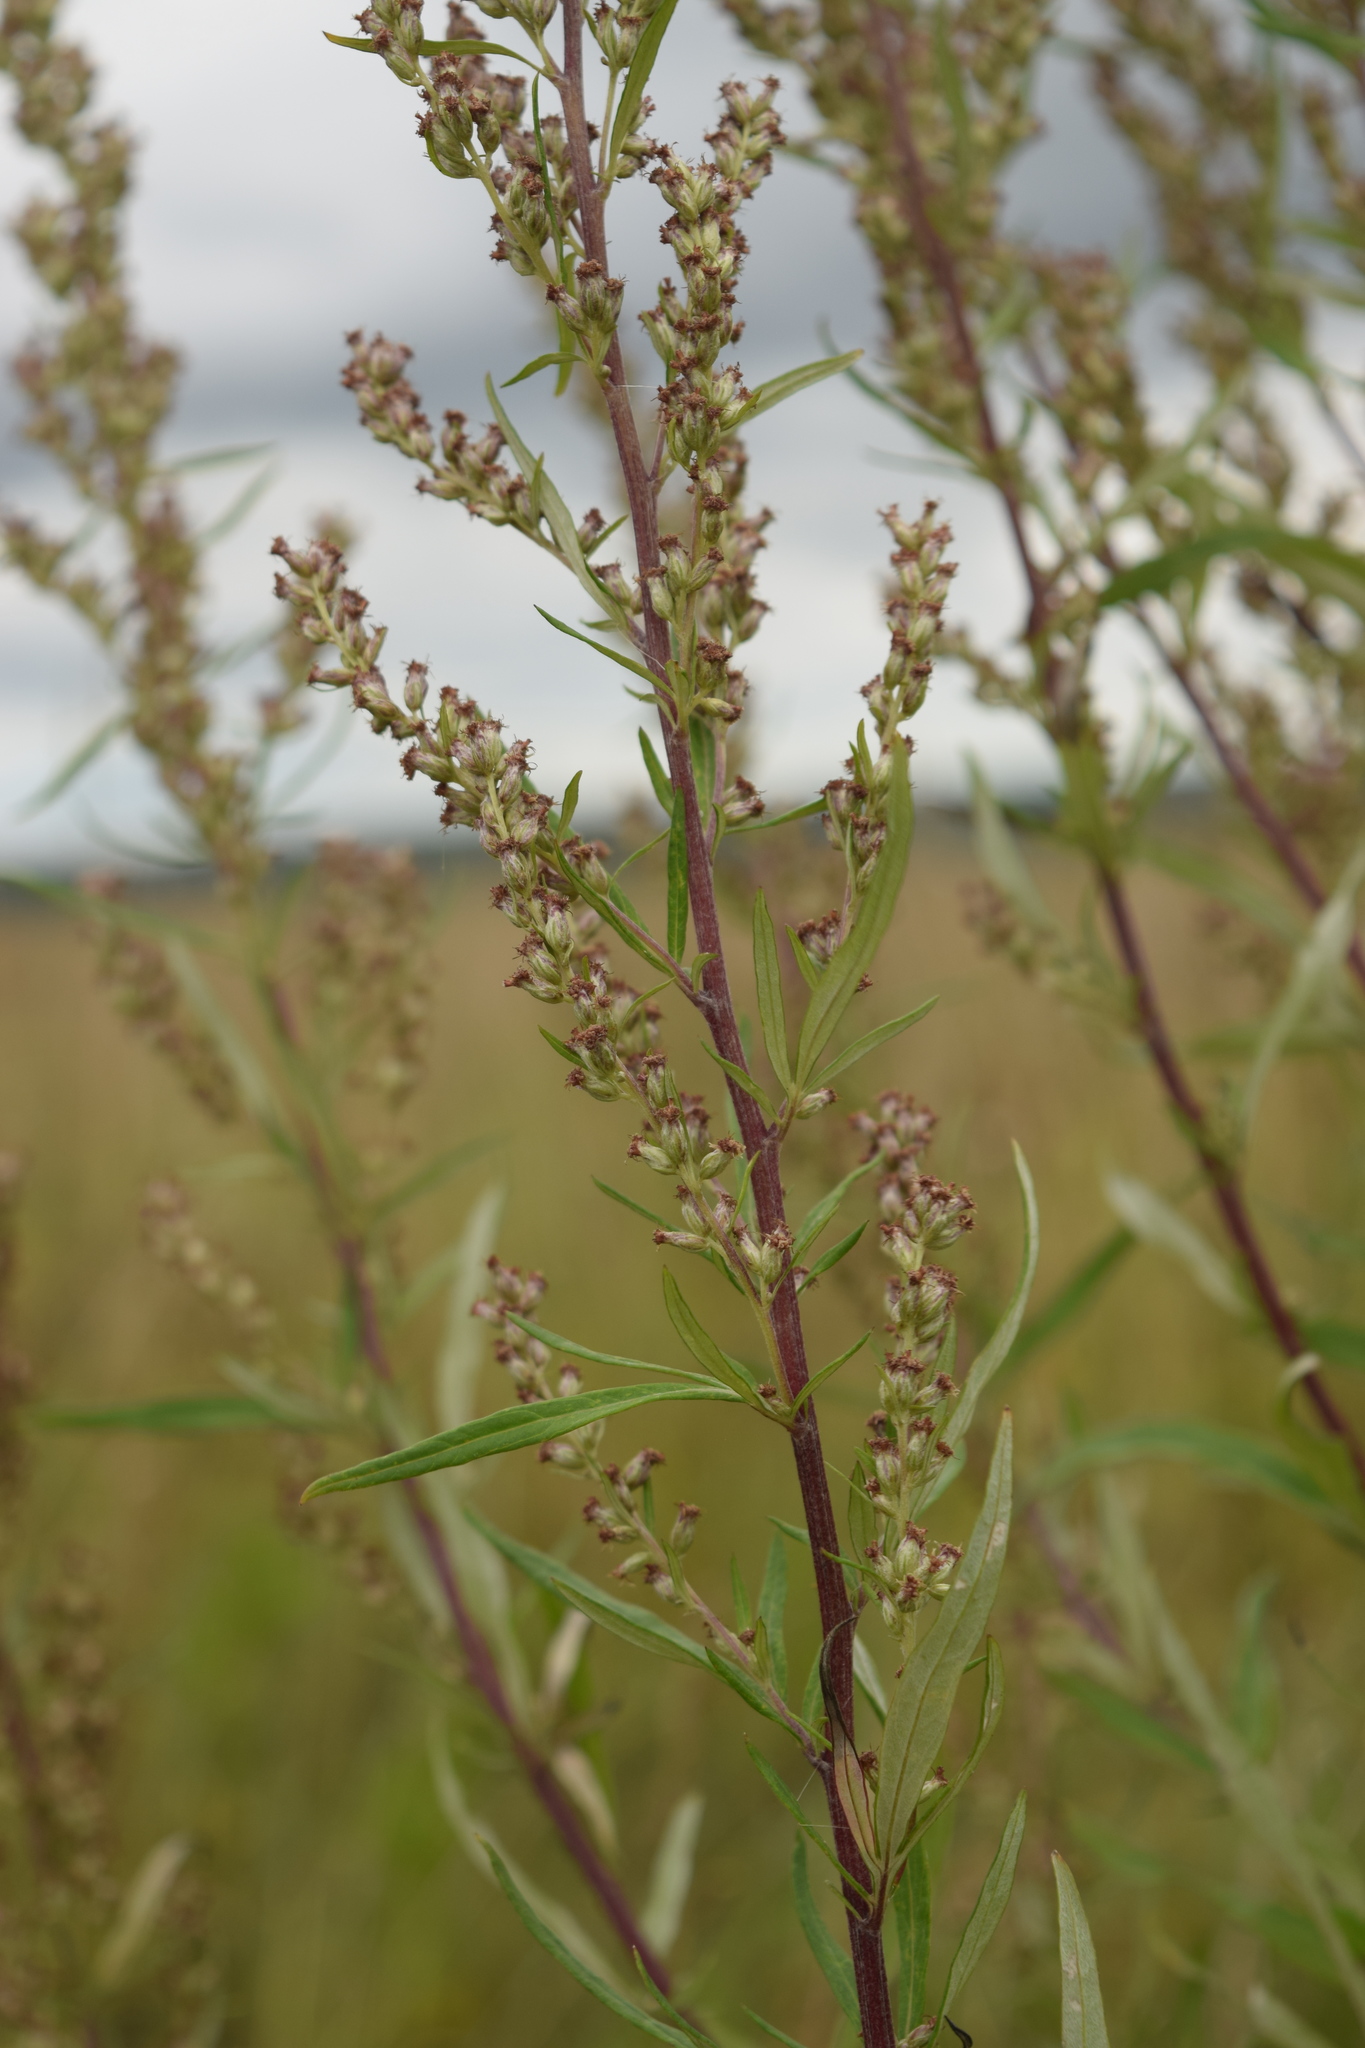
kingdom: Plantae
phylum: Tracheophyta
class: Magnoliopsida
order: Asterales
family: Asteraceae
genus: Artemisia
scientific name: Artemisia vulgaris
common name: Mugwort
